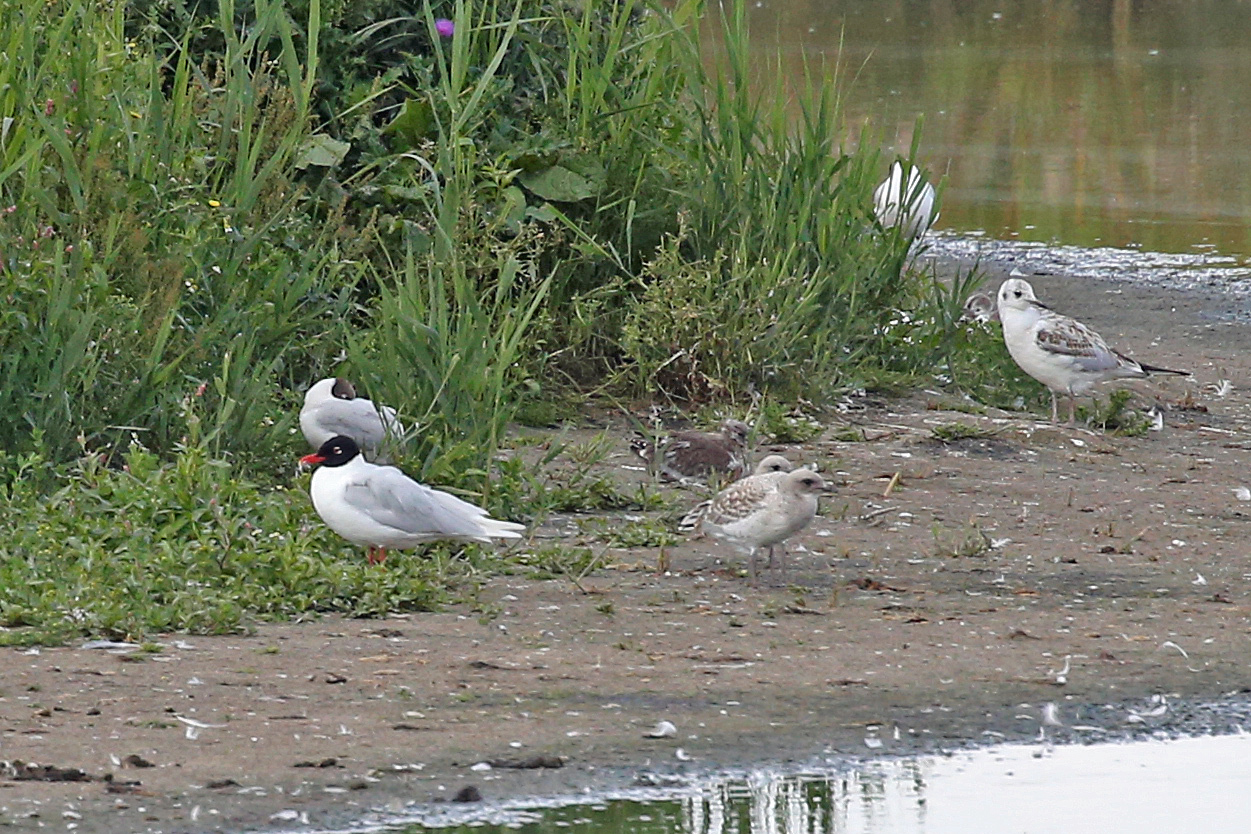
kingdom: Animalia
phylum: Chordata
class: Aves
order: Charadriiformes
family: Laridae
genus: Ichthyaetus
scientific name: Ichthyaetus melanocephalus
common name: Mediterranean gull
